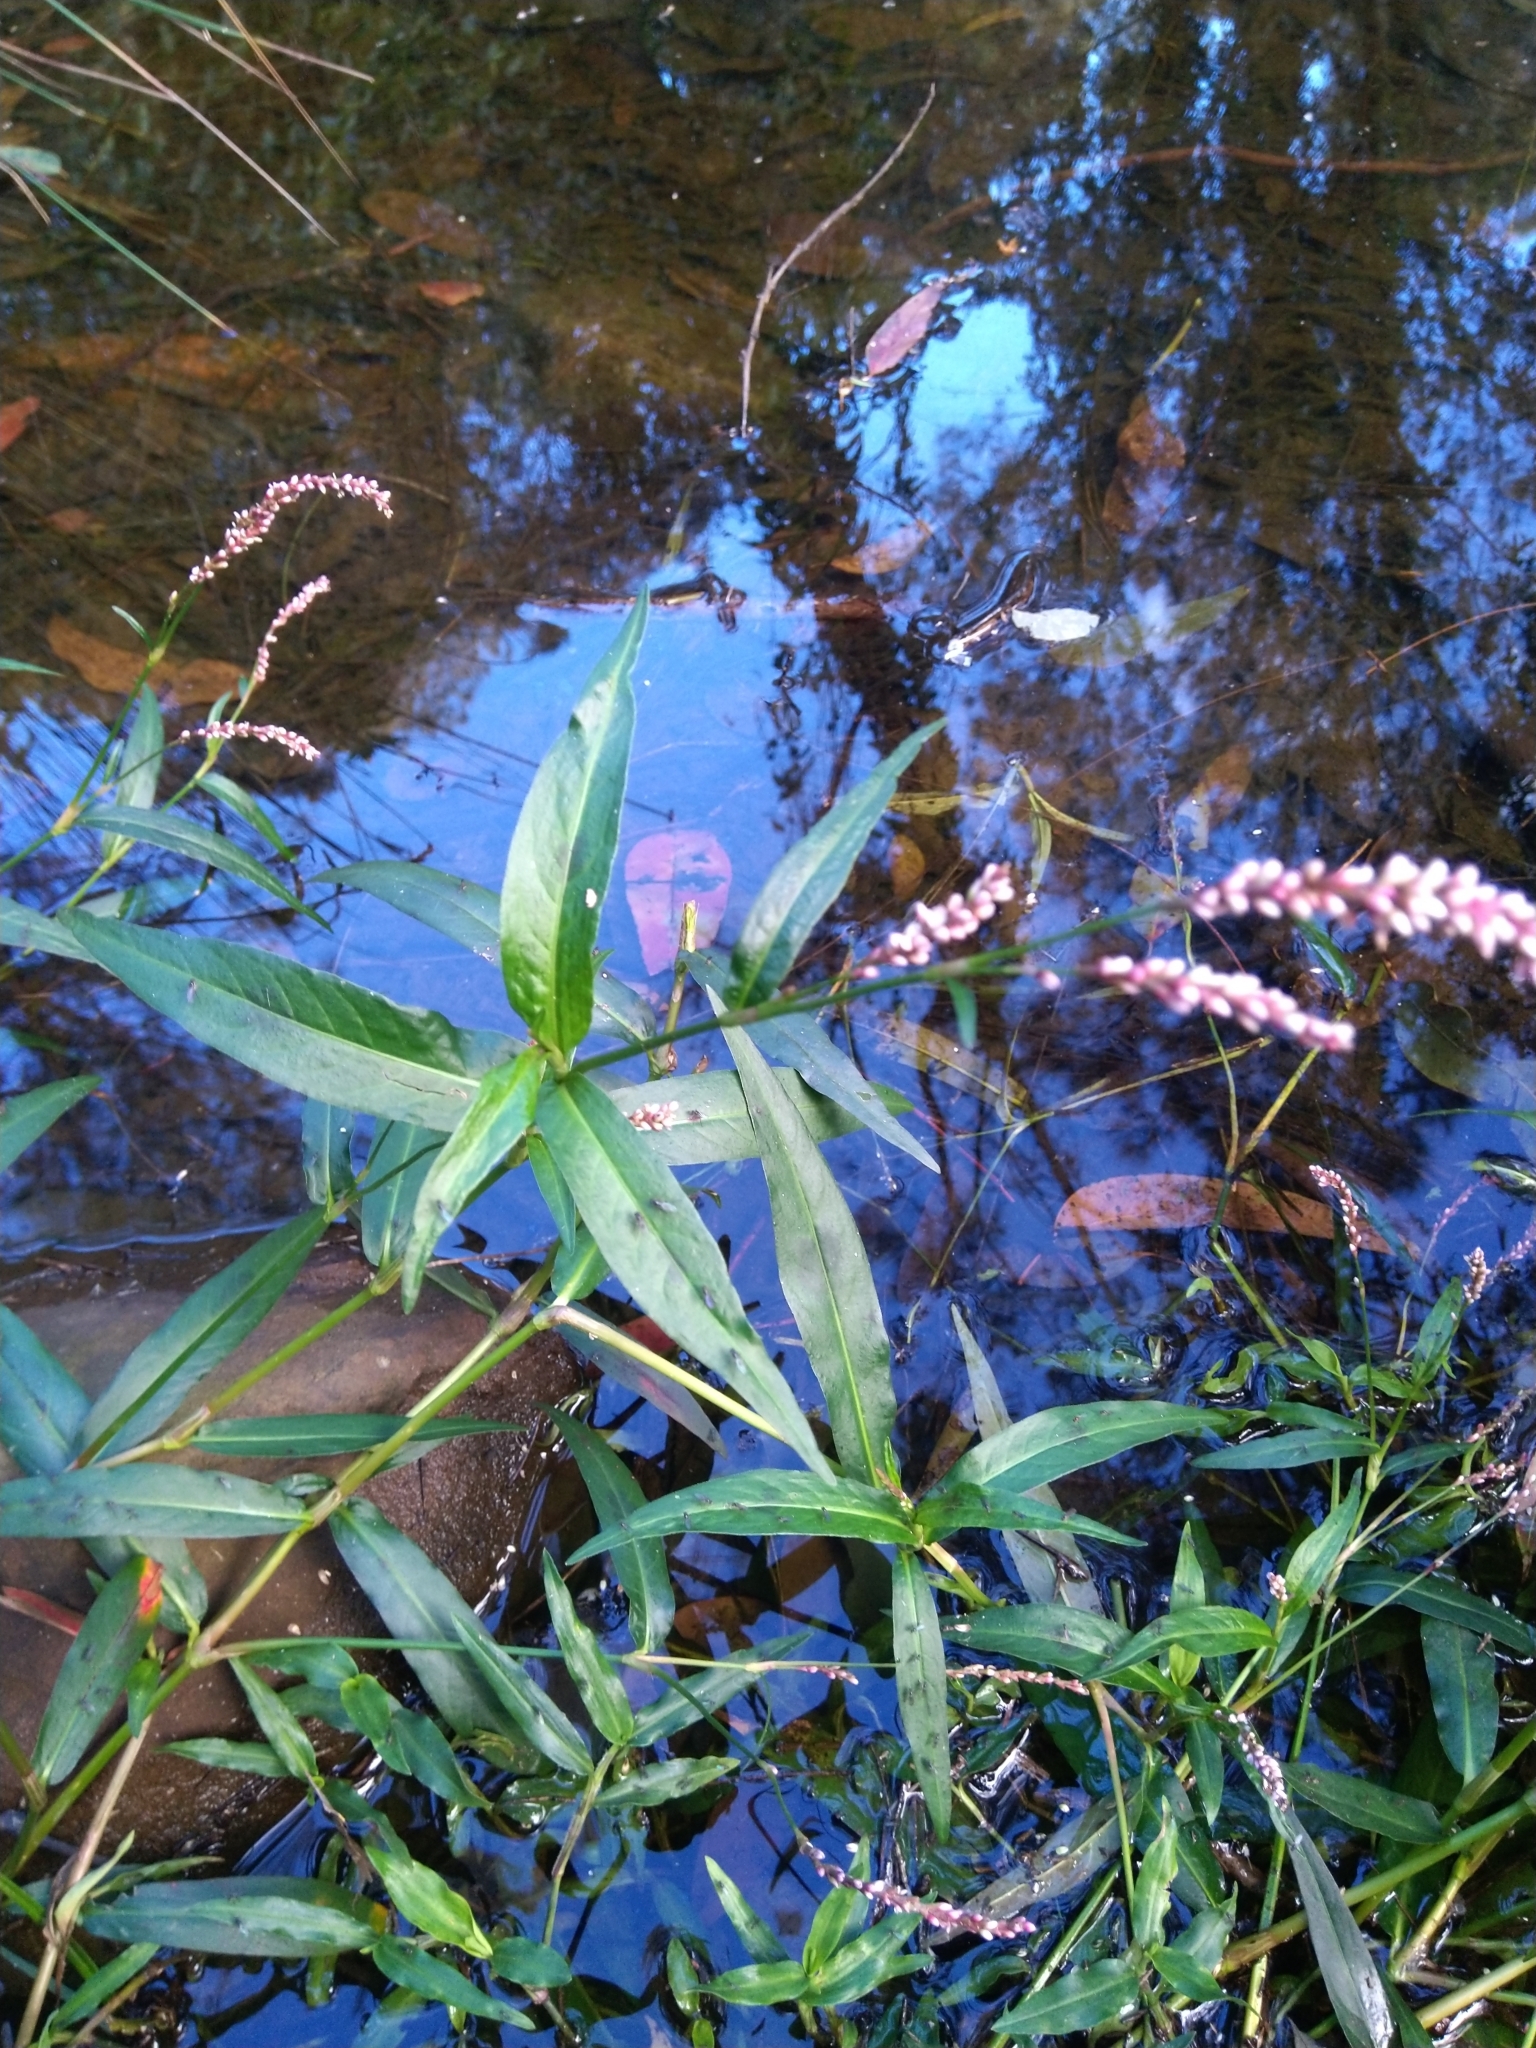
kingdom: Plantae
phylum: Tracheophyta
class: Magnoliopsida
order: Caryophyllales
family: Polygonaceae
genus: Persicaria
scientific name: Persicaria decipiens
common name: Willow-weed
